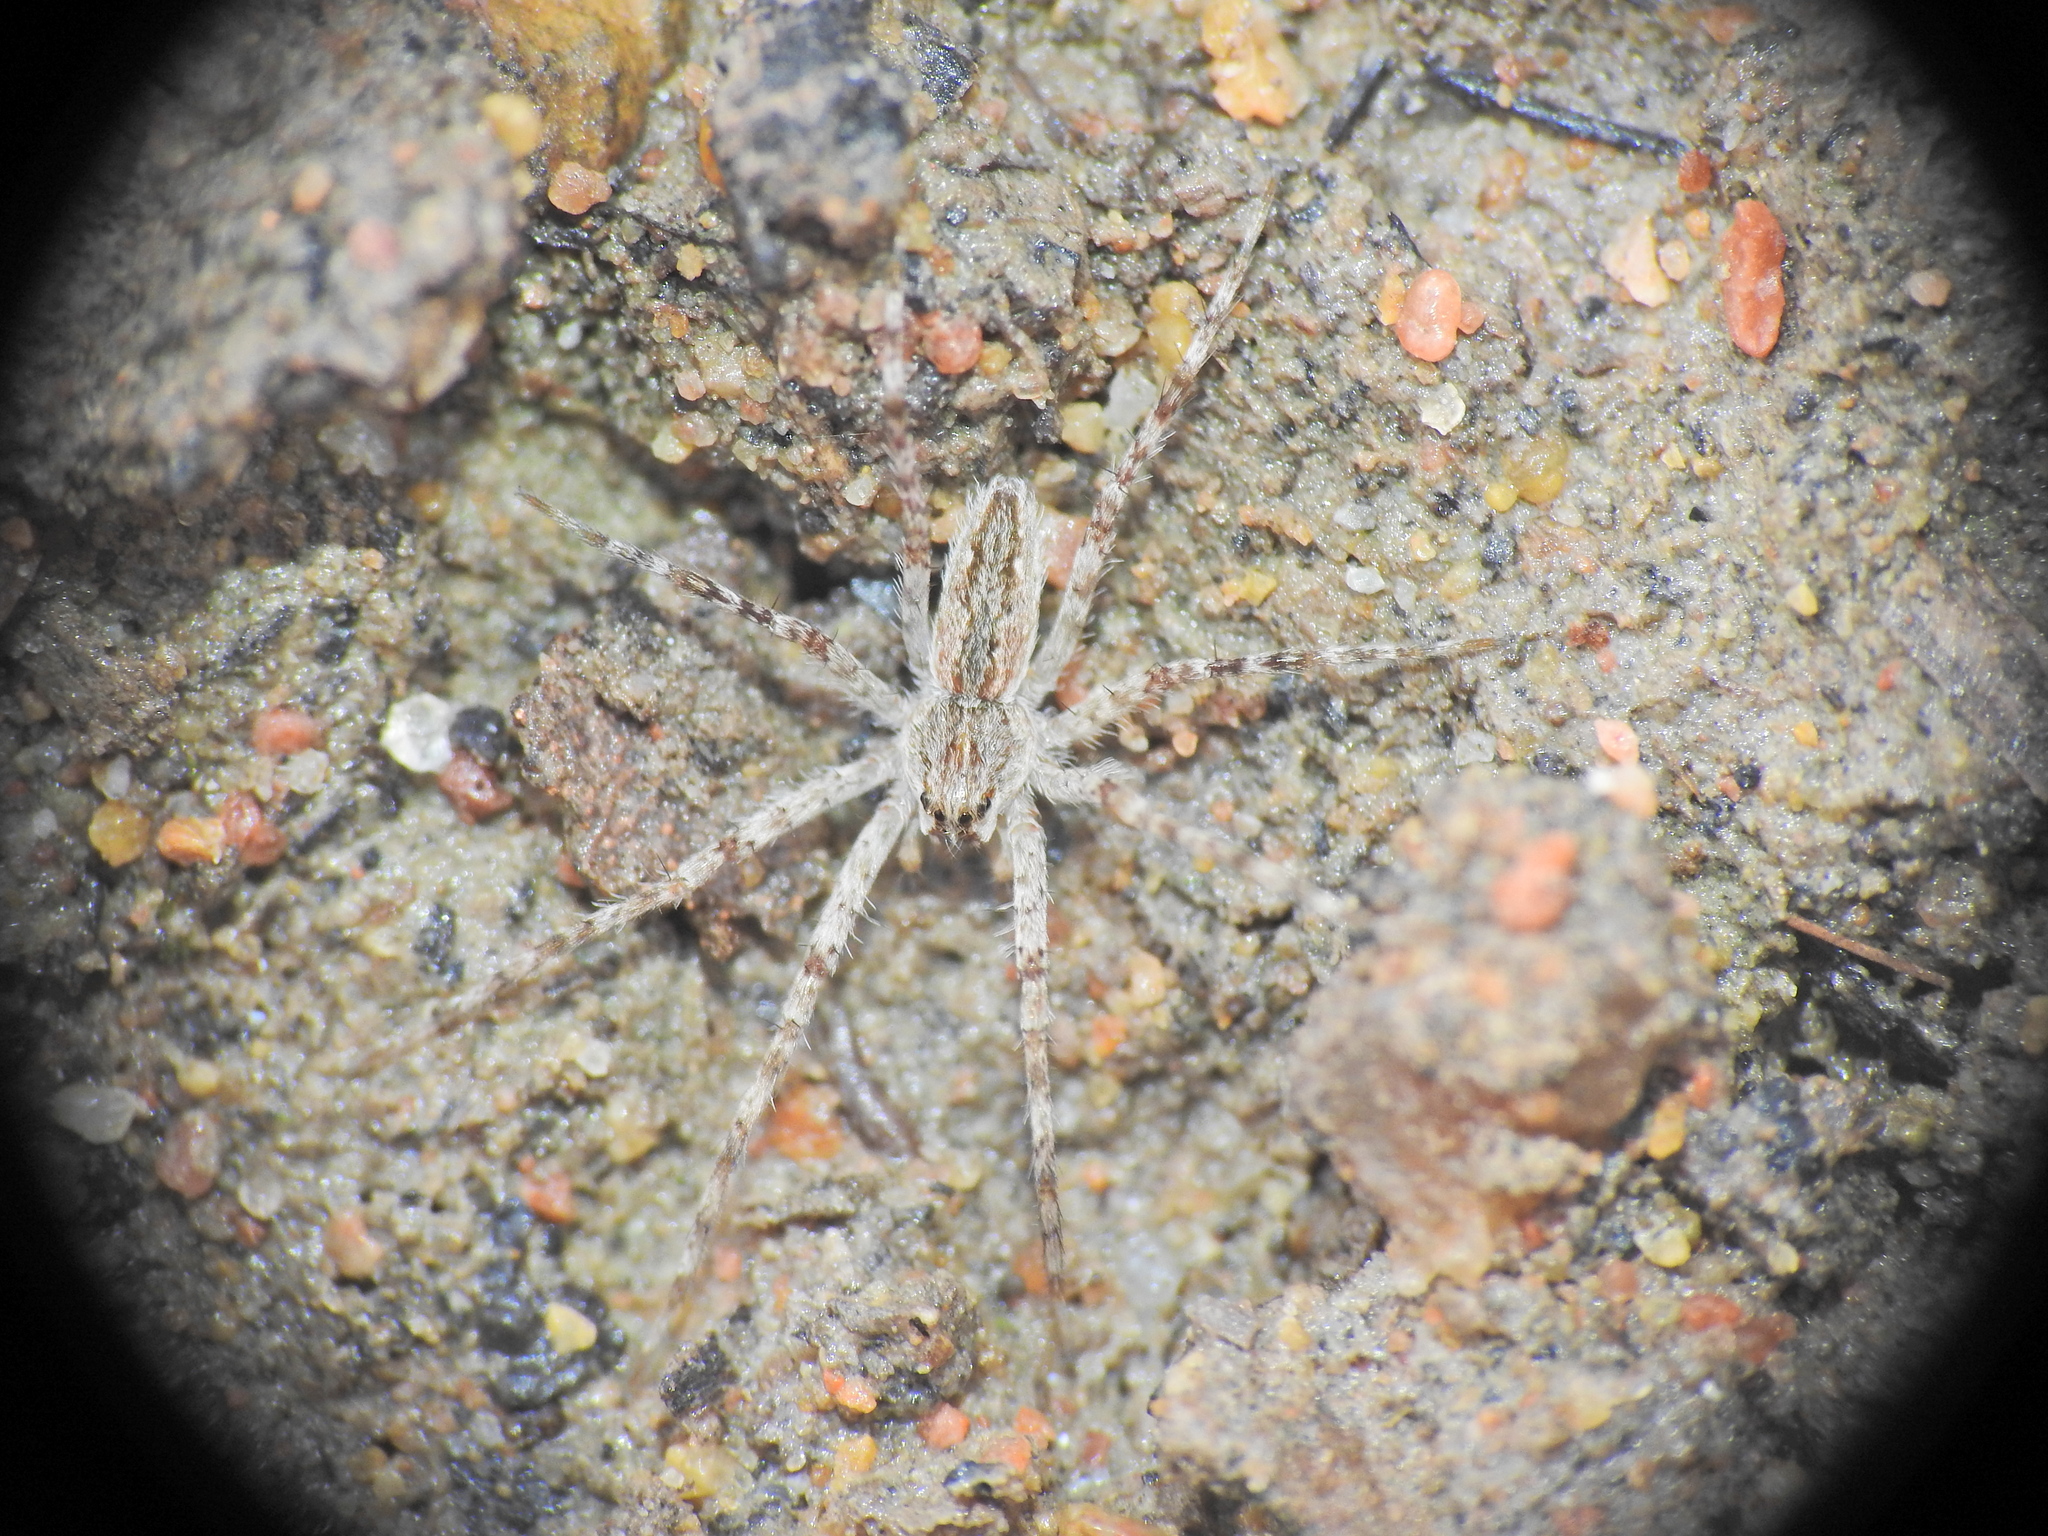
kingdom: Animalia
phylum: Arthropoda
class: Arachnida
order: Araneae
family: Pisauridae
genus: Megadolomedes
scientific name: Megadolomedes trux
